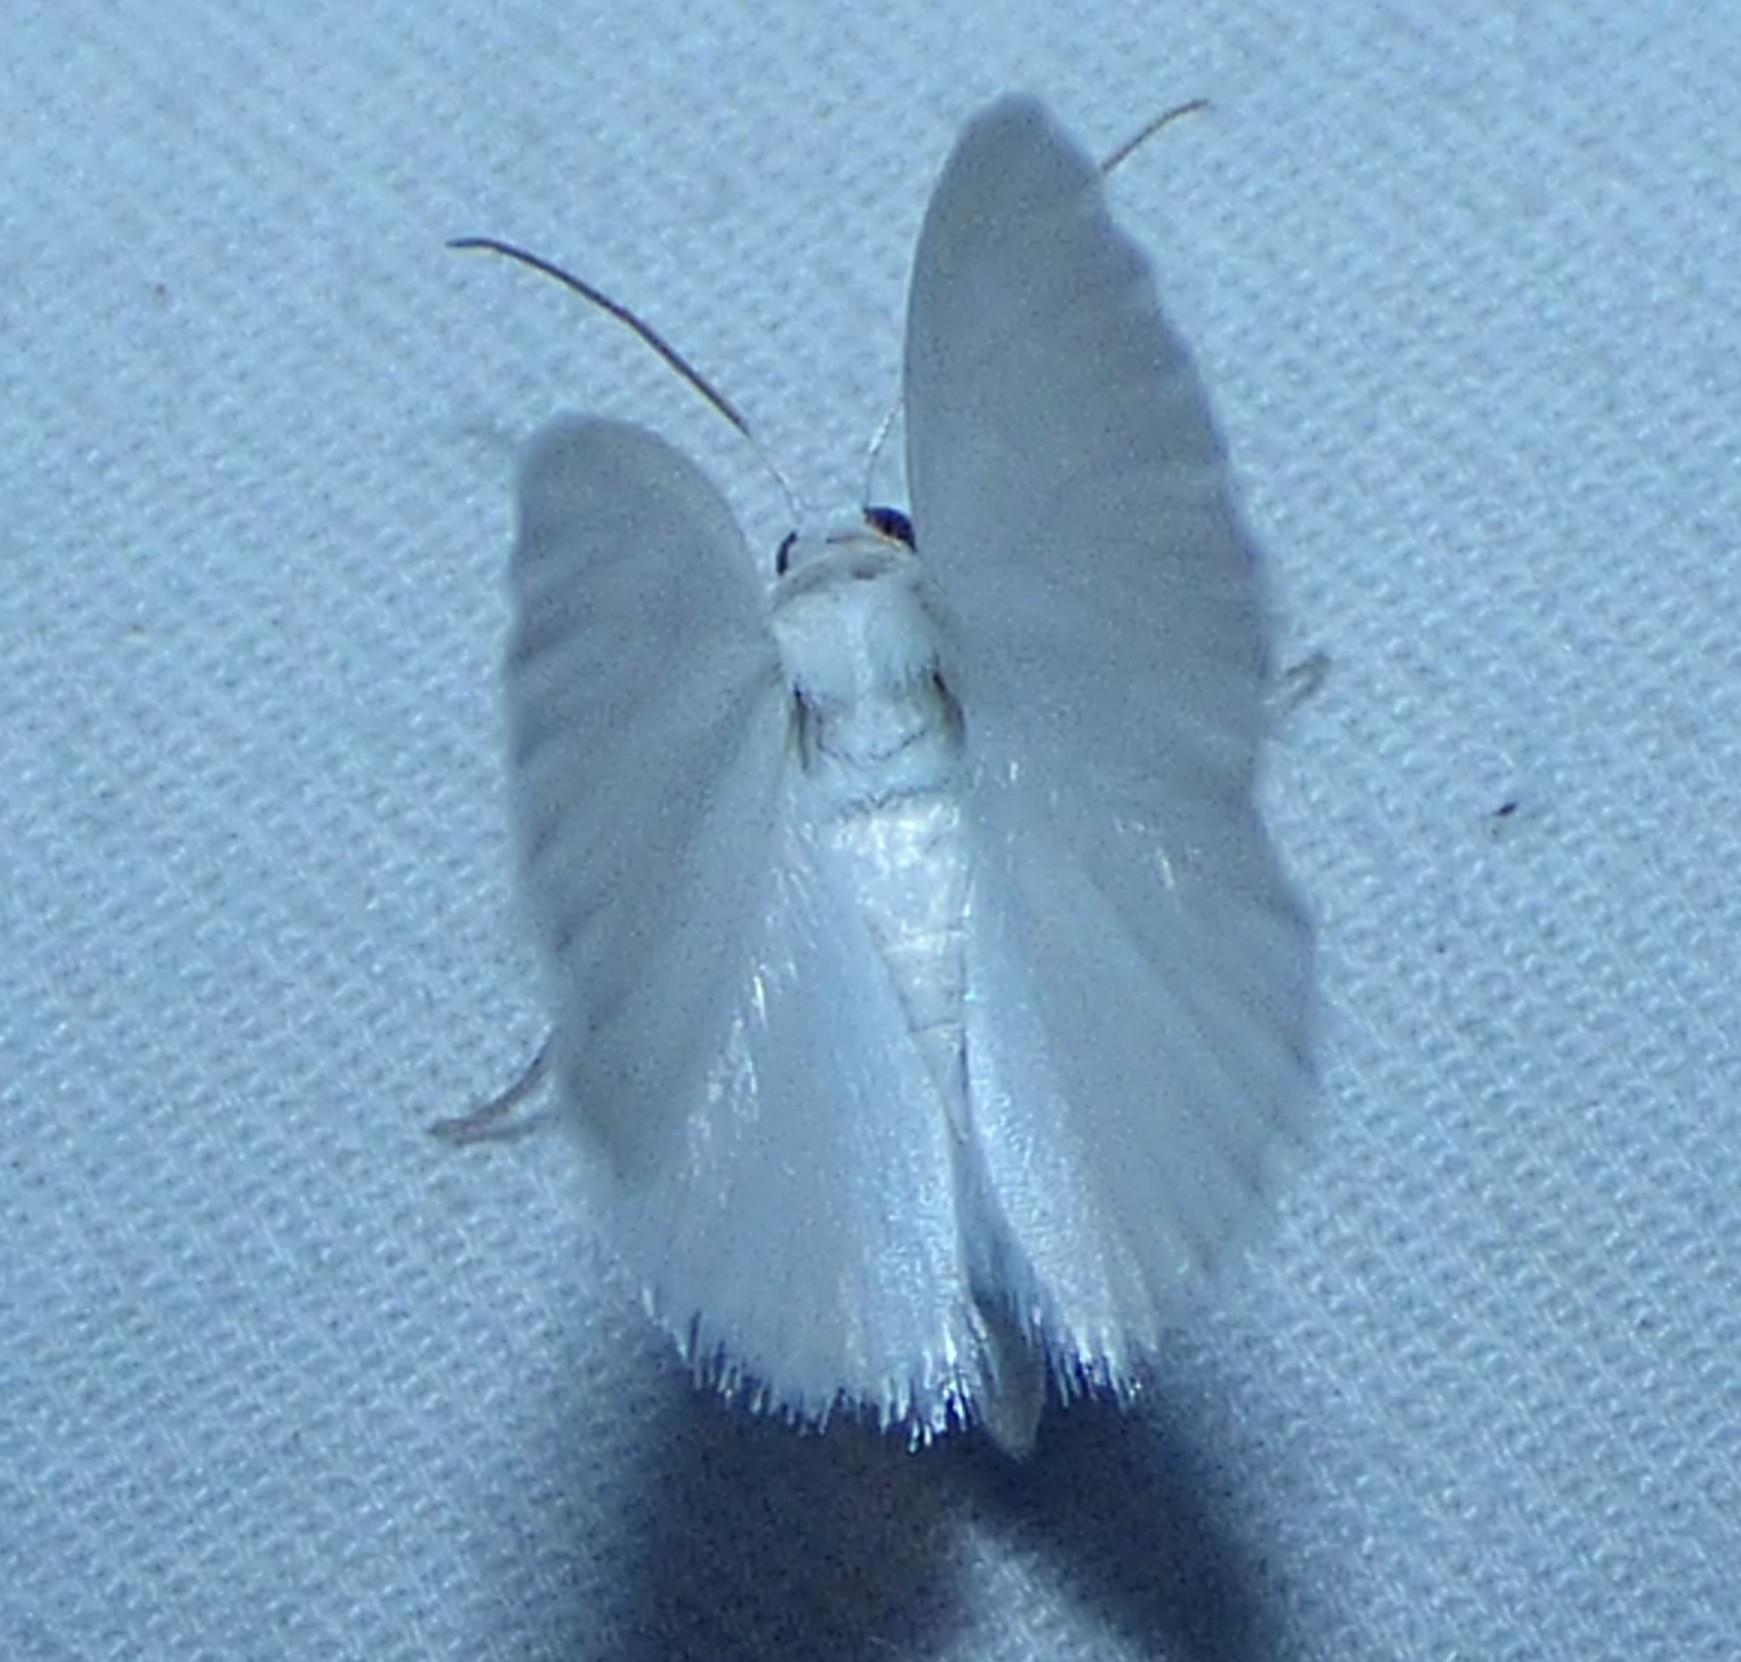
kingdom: Animalia
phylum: Arthropoda
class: Insecta
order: Lepidoptera
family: Geometridae
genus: Lomographa
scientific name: Lomographa vestaliata
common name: White spring moth
